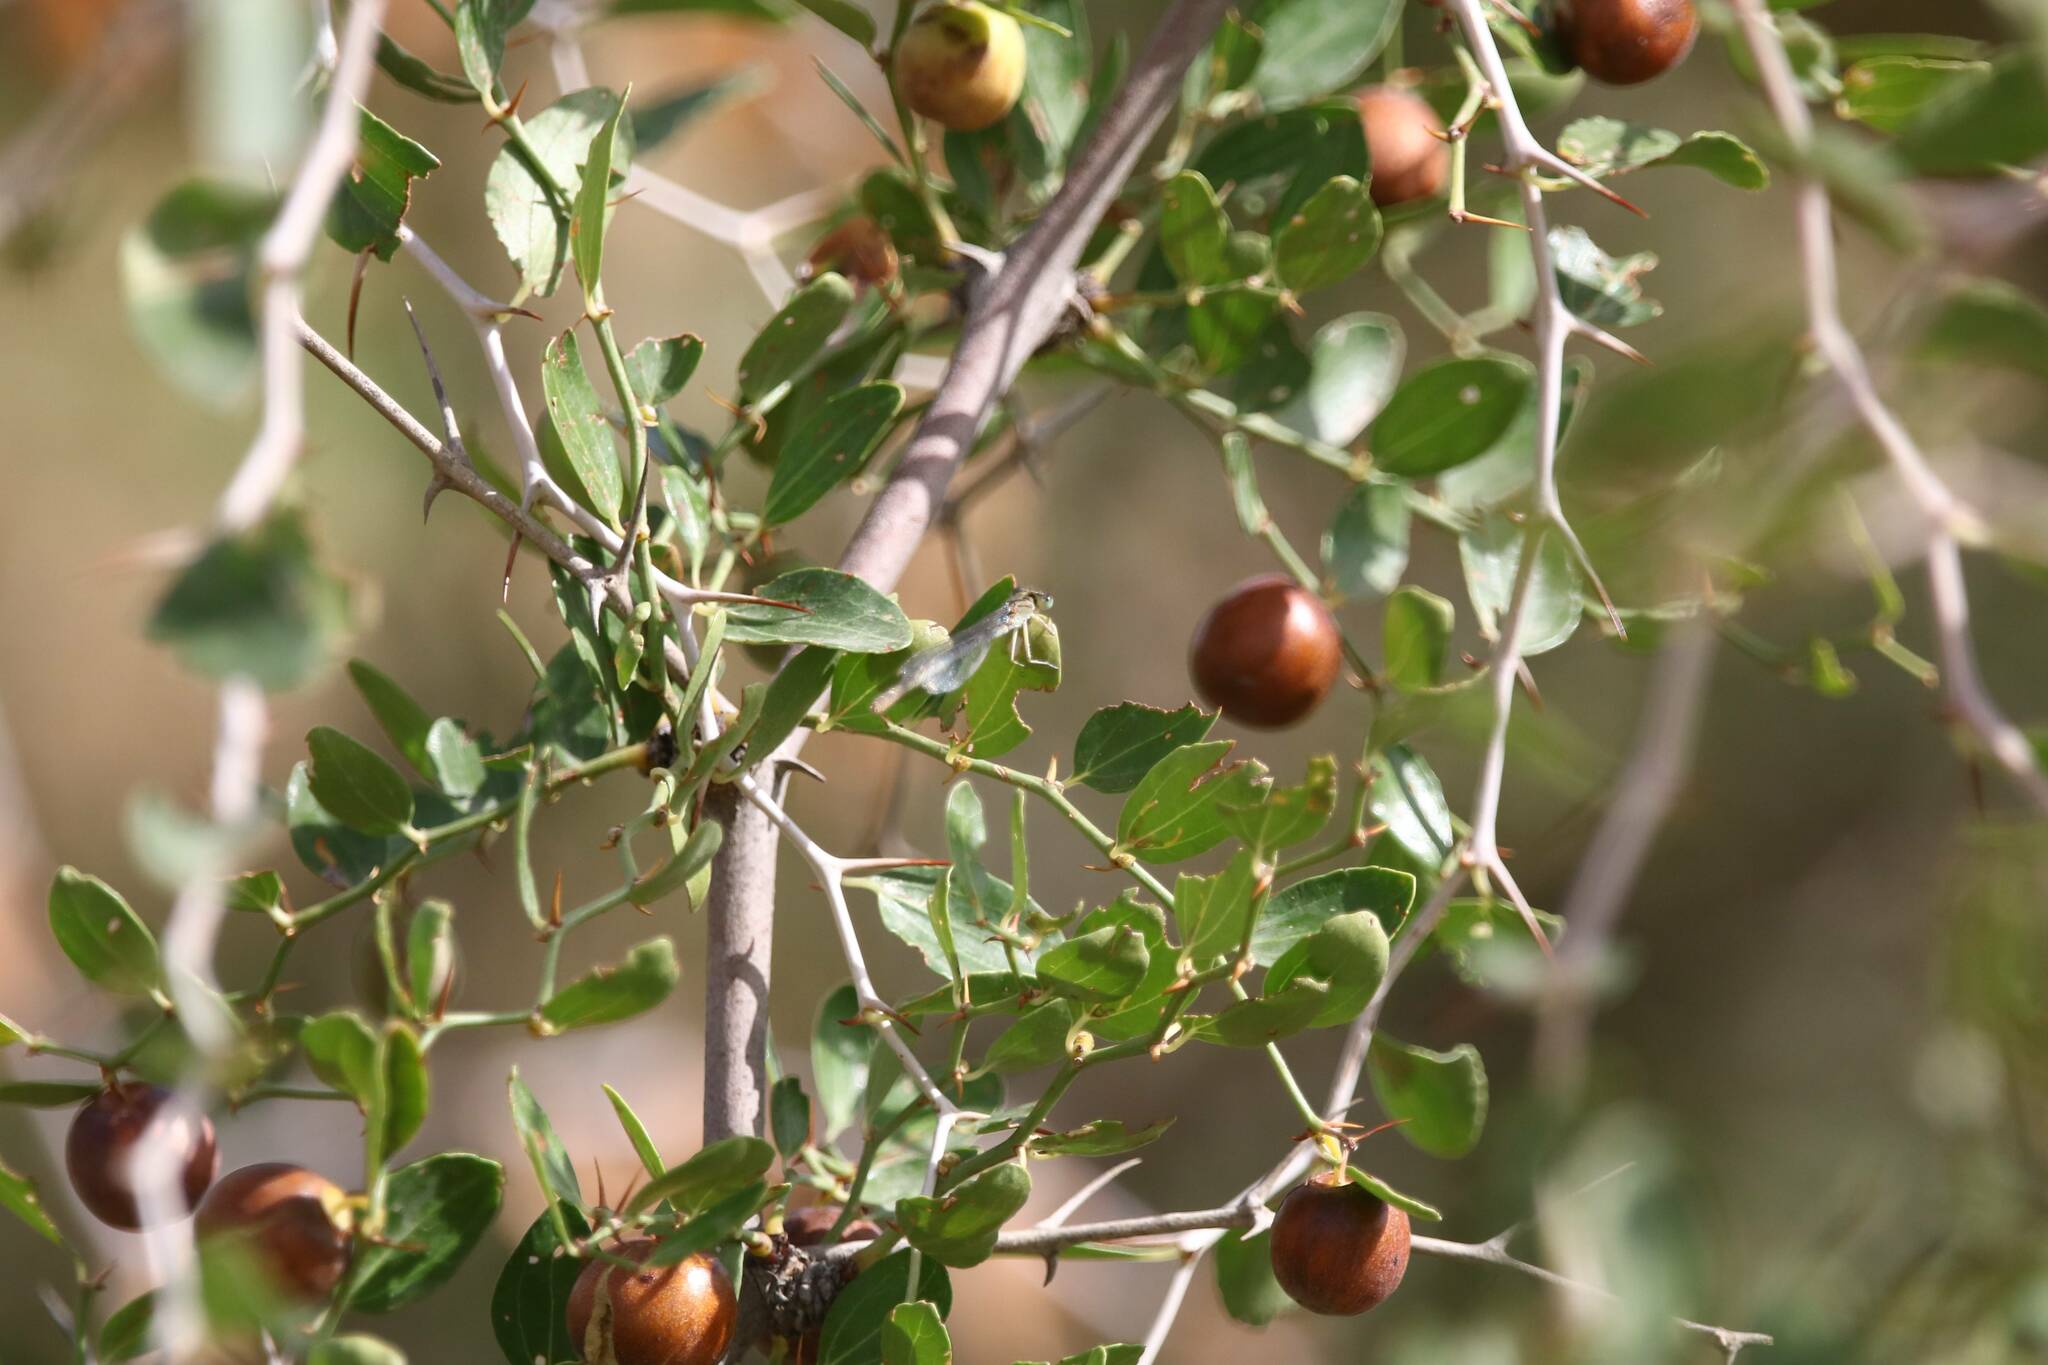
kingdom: Plantae
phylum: Tracheophyta
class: Magnoliopsida
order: Rosales
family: Rhamnaceae
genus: Ziziphus
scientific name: Ziziphus lotus
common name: Lotus
